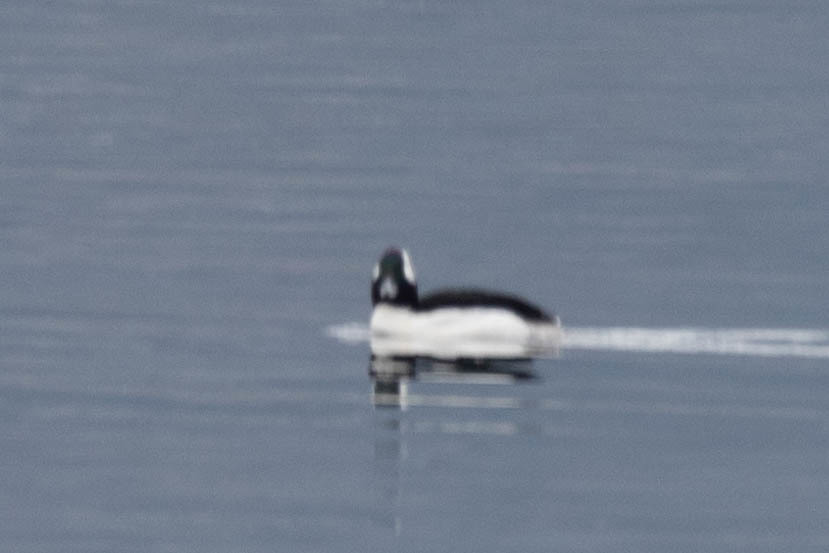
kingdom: Animalia
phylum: Chordata
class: Aves
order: Anseriformes
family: Anatidae
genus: Bucephala
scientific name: Bucephala albeola
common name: Bufflehead
